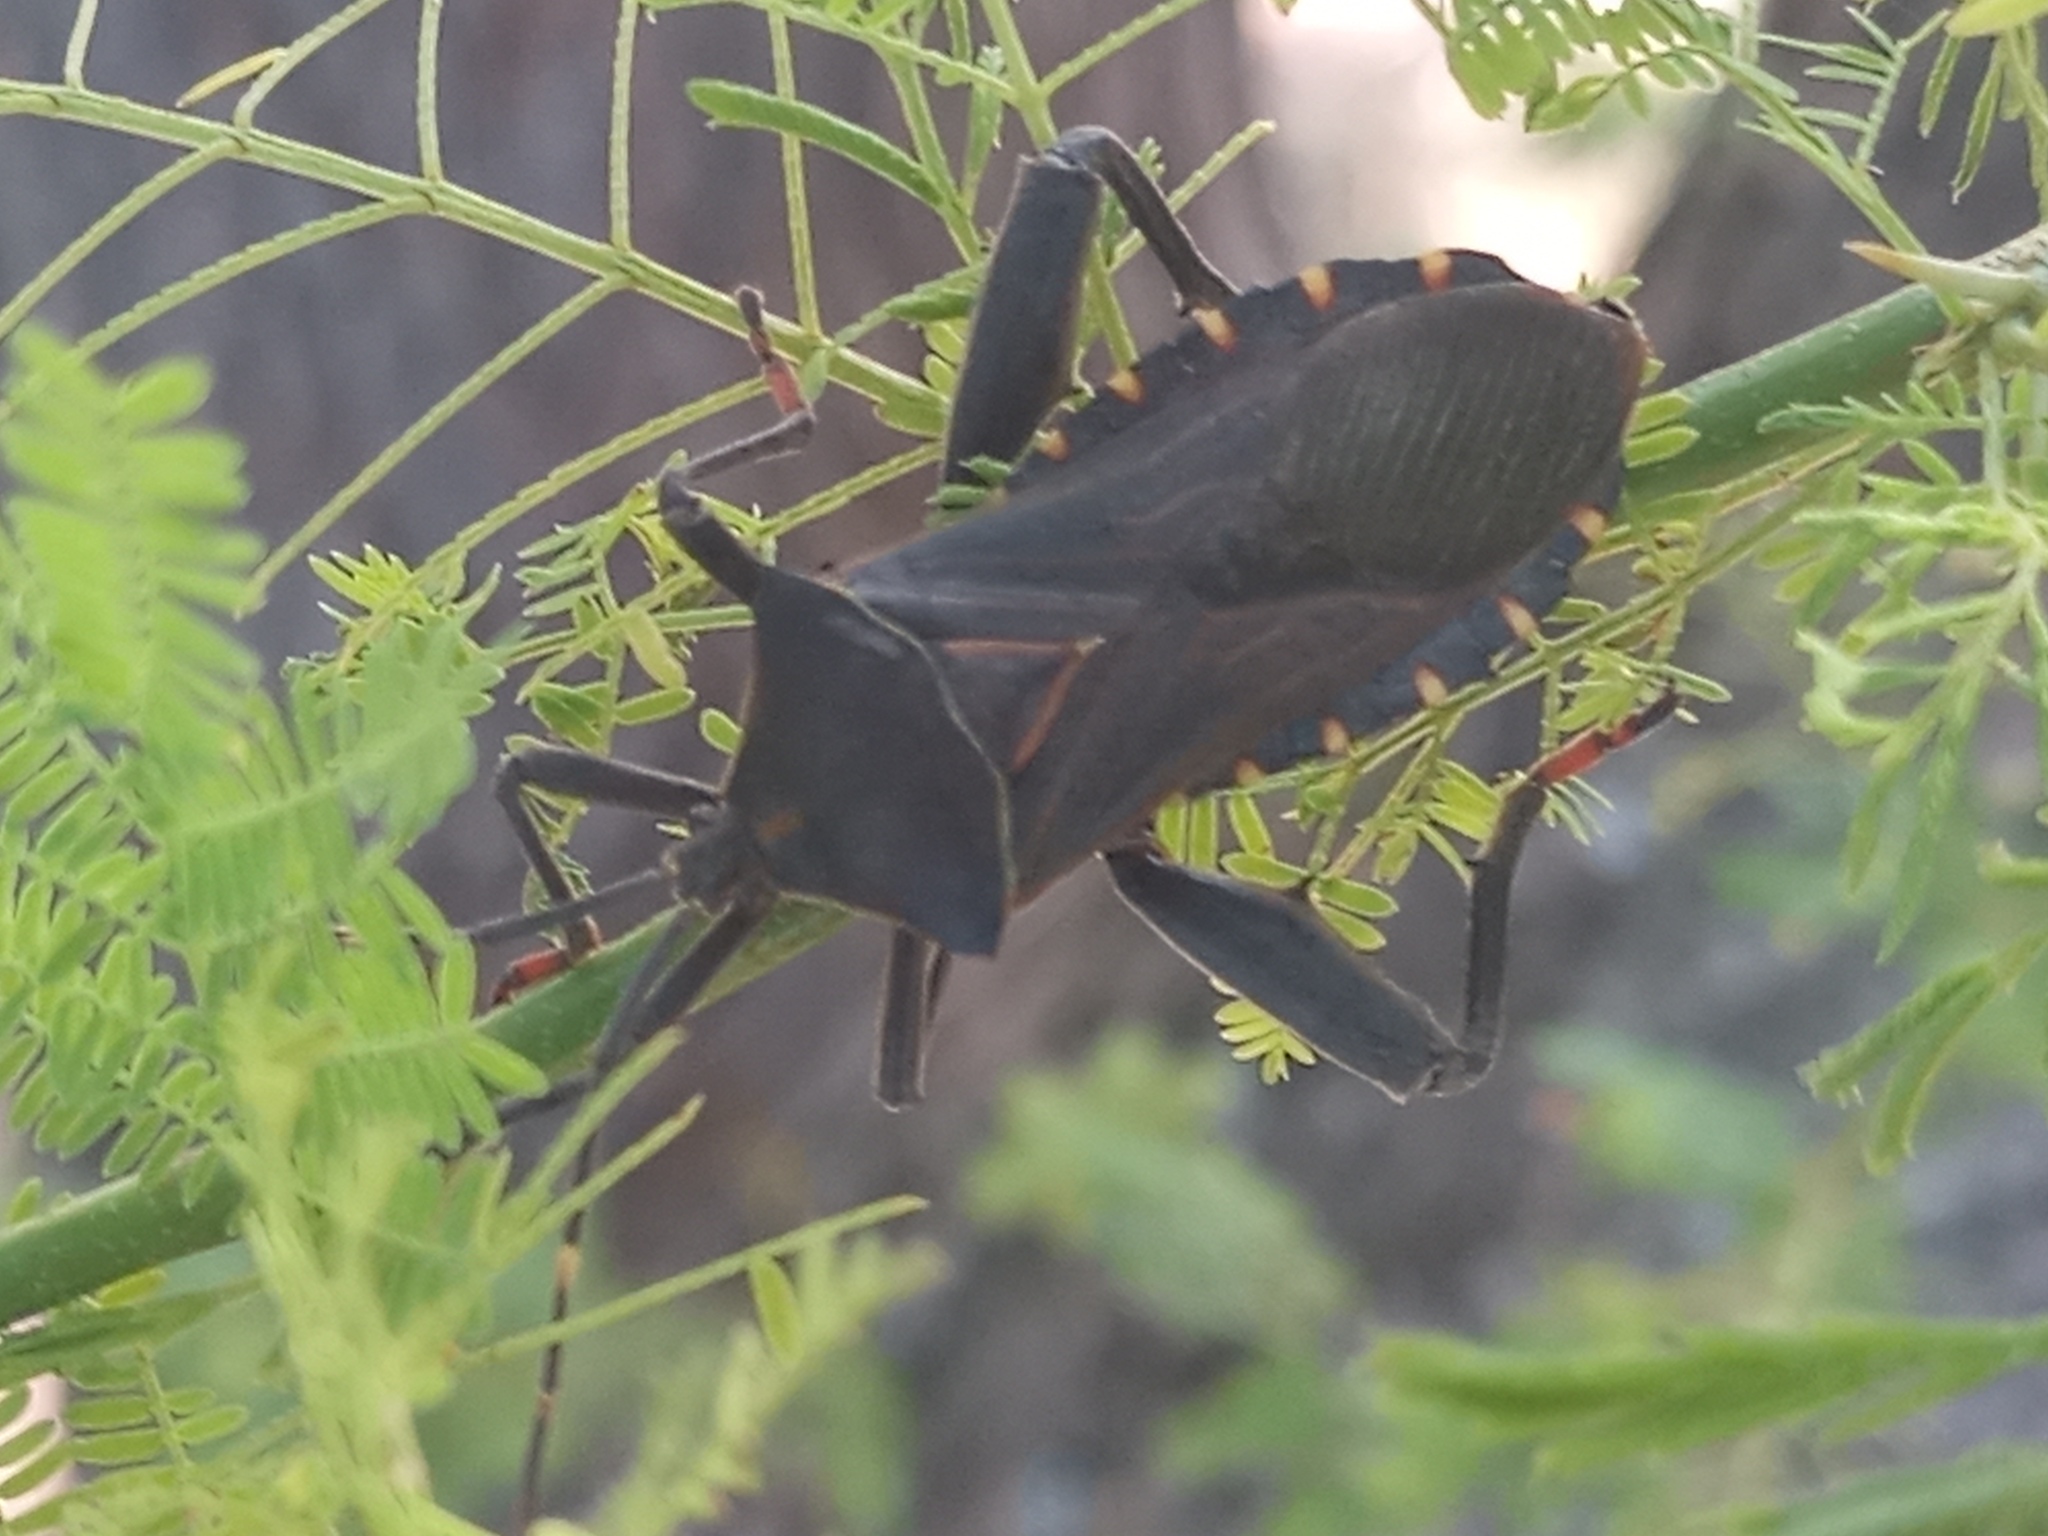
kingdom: Animalia
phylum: Arthropoda
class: Insecta
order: Hemiptera
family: Coreidae
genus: Pachylis
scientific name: Pachylis argentinus
